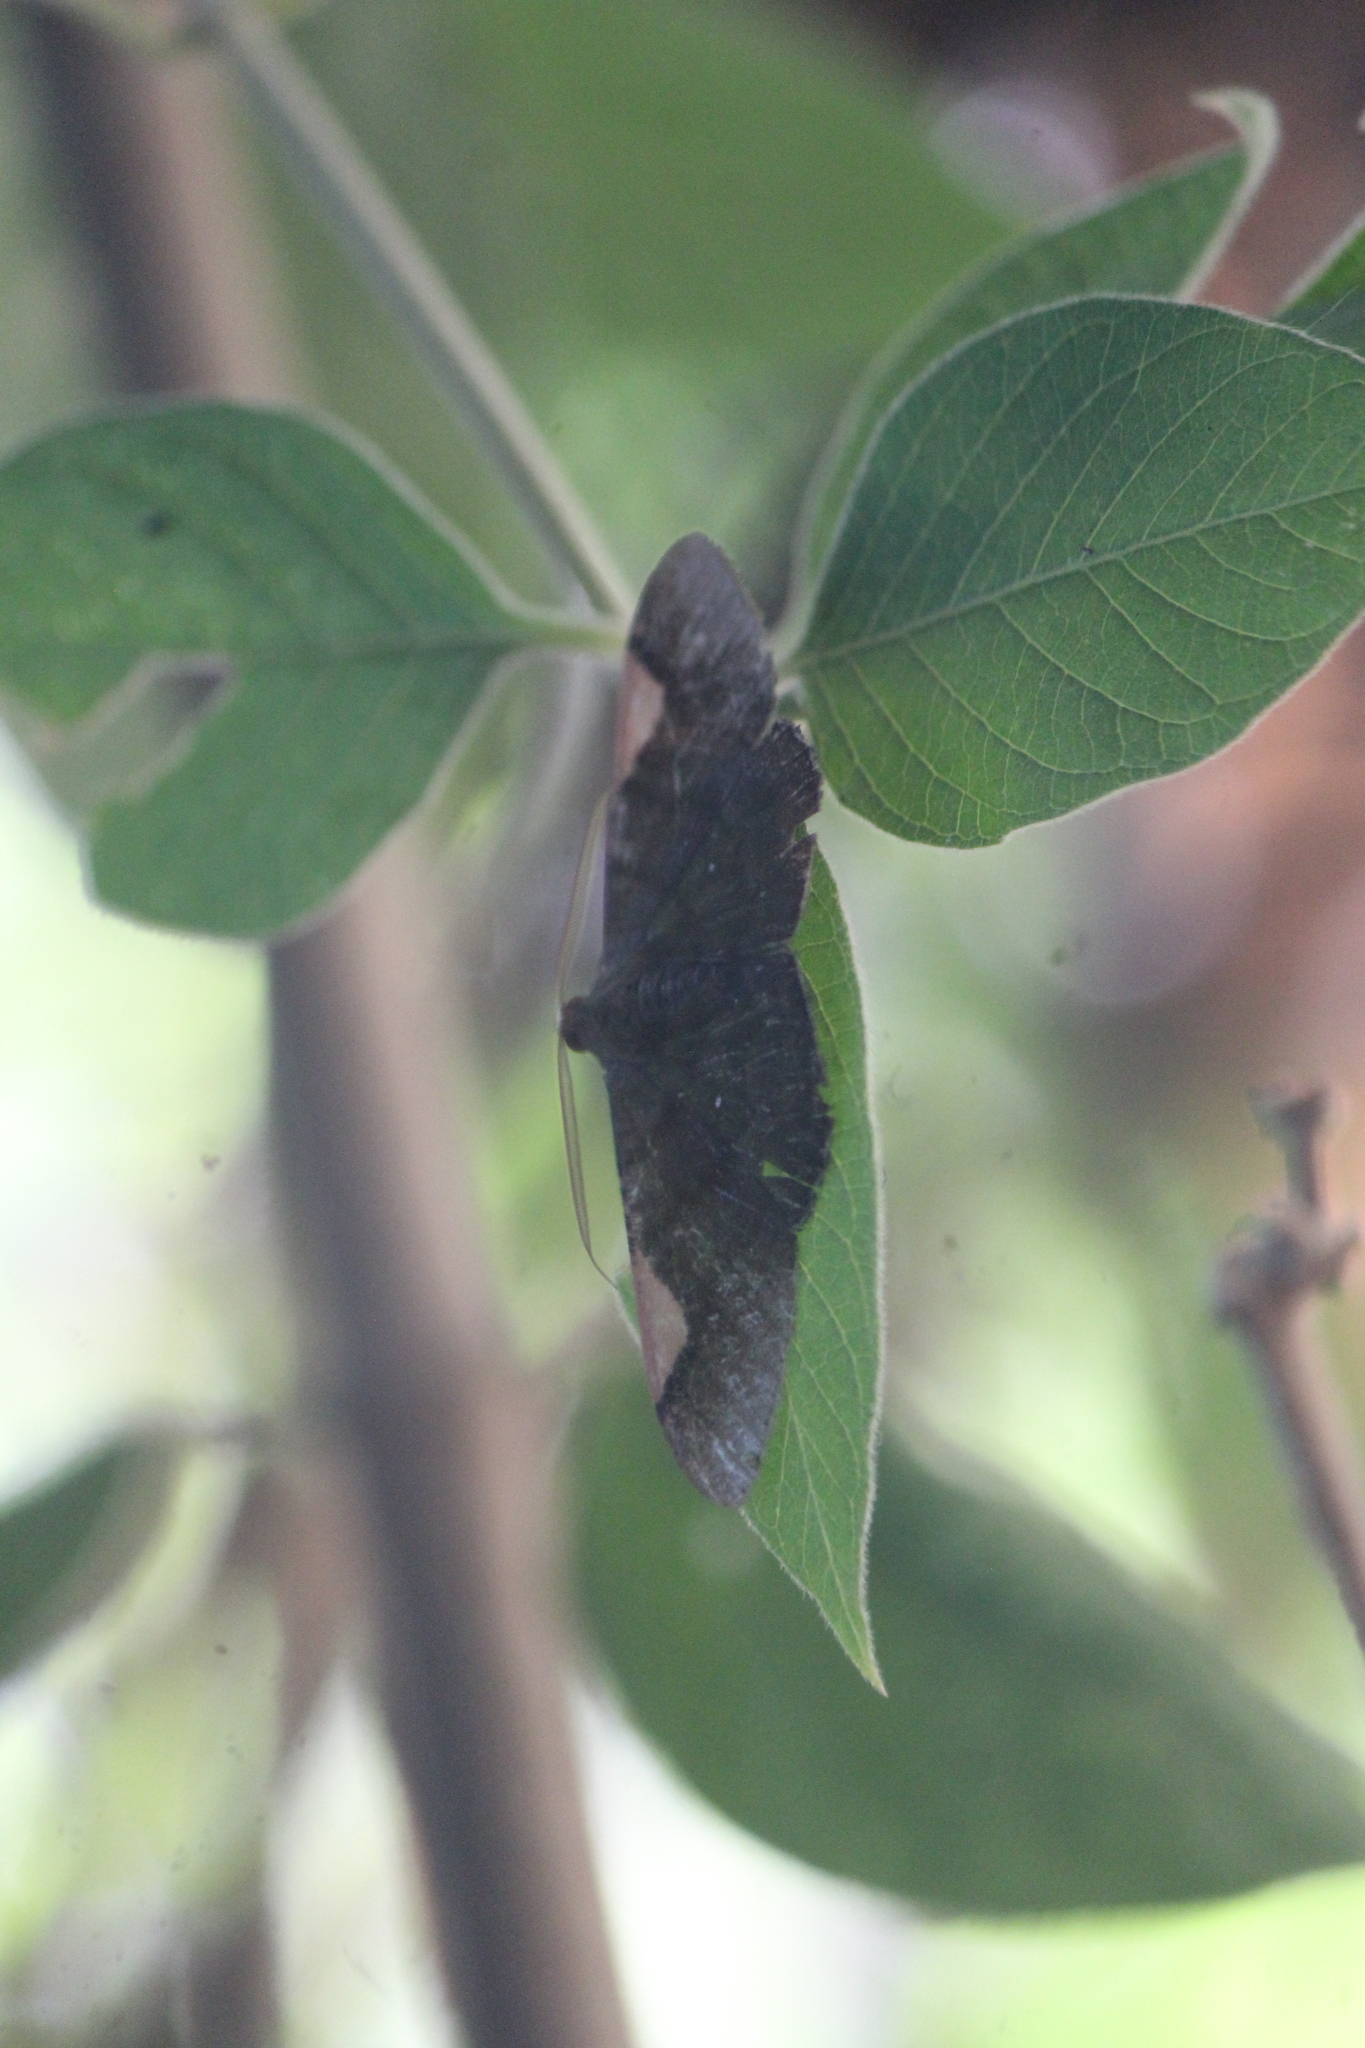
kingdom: Animalia
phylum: Arthropoda
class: Insecta
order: Lepidoptera
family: Geometridae
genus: Sphacelodes
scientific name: Sphacelodes vulneraria
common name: Looper moth
